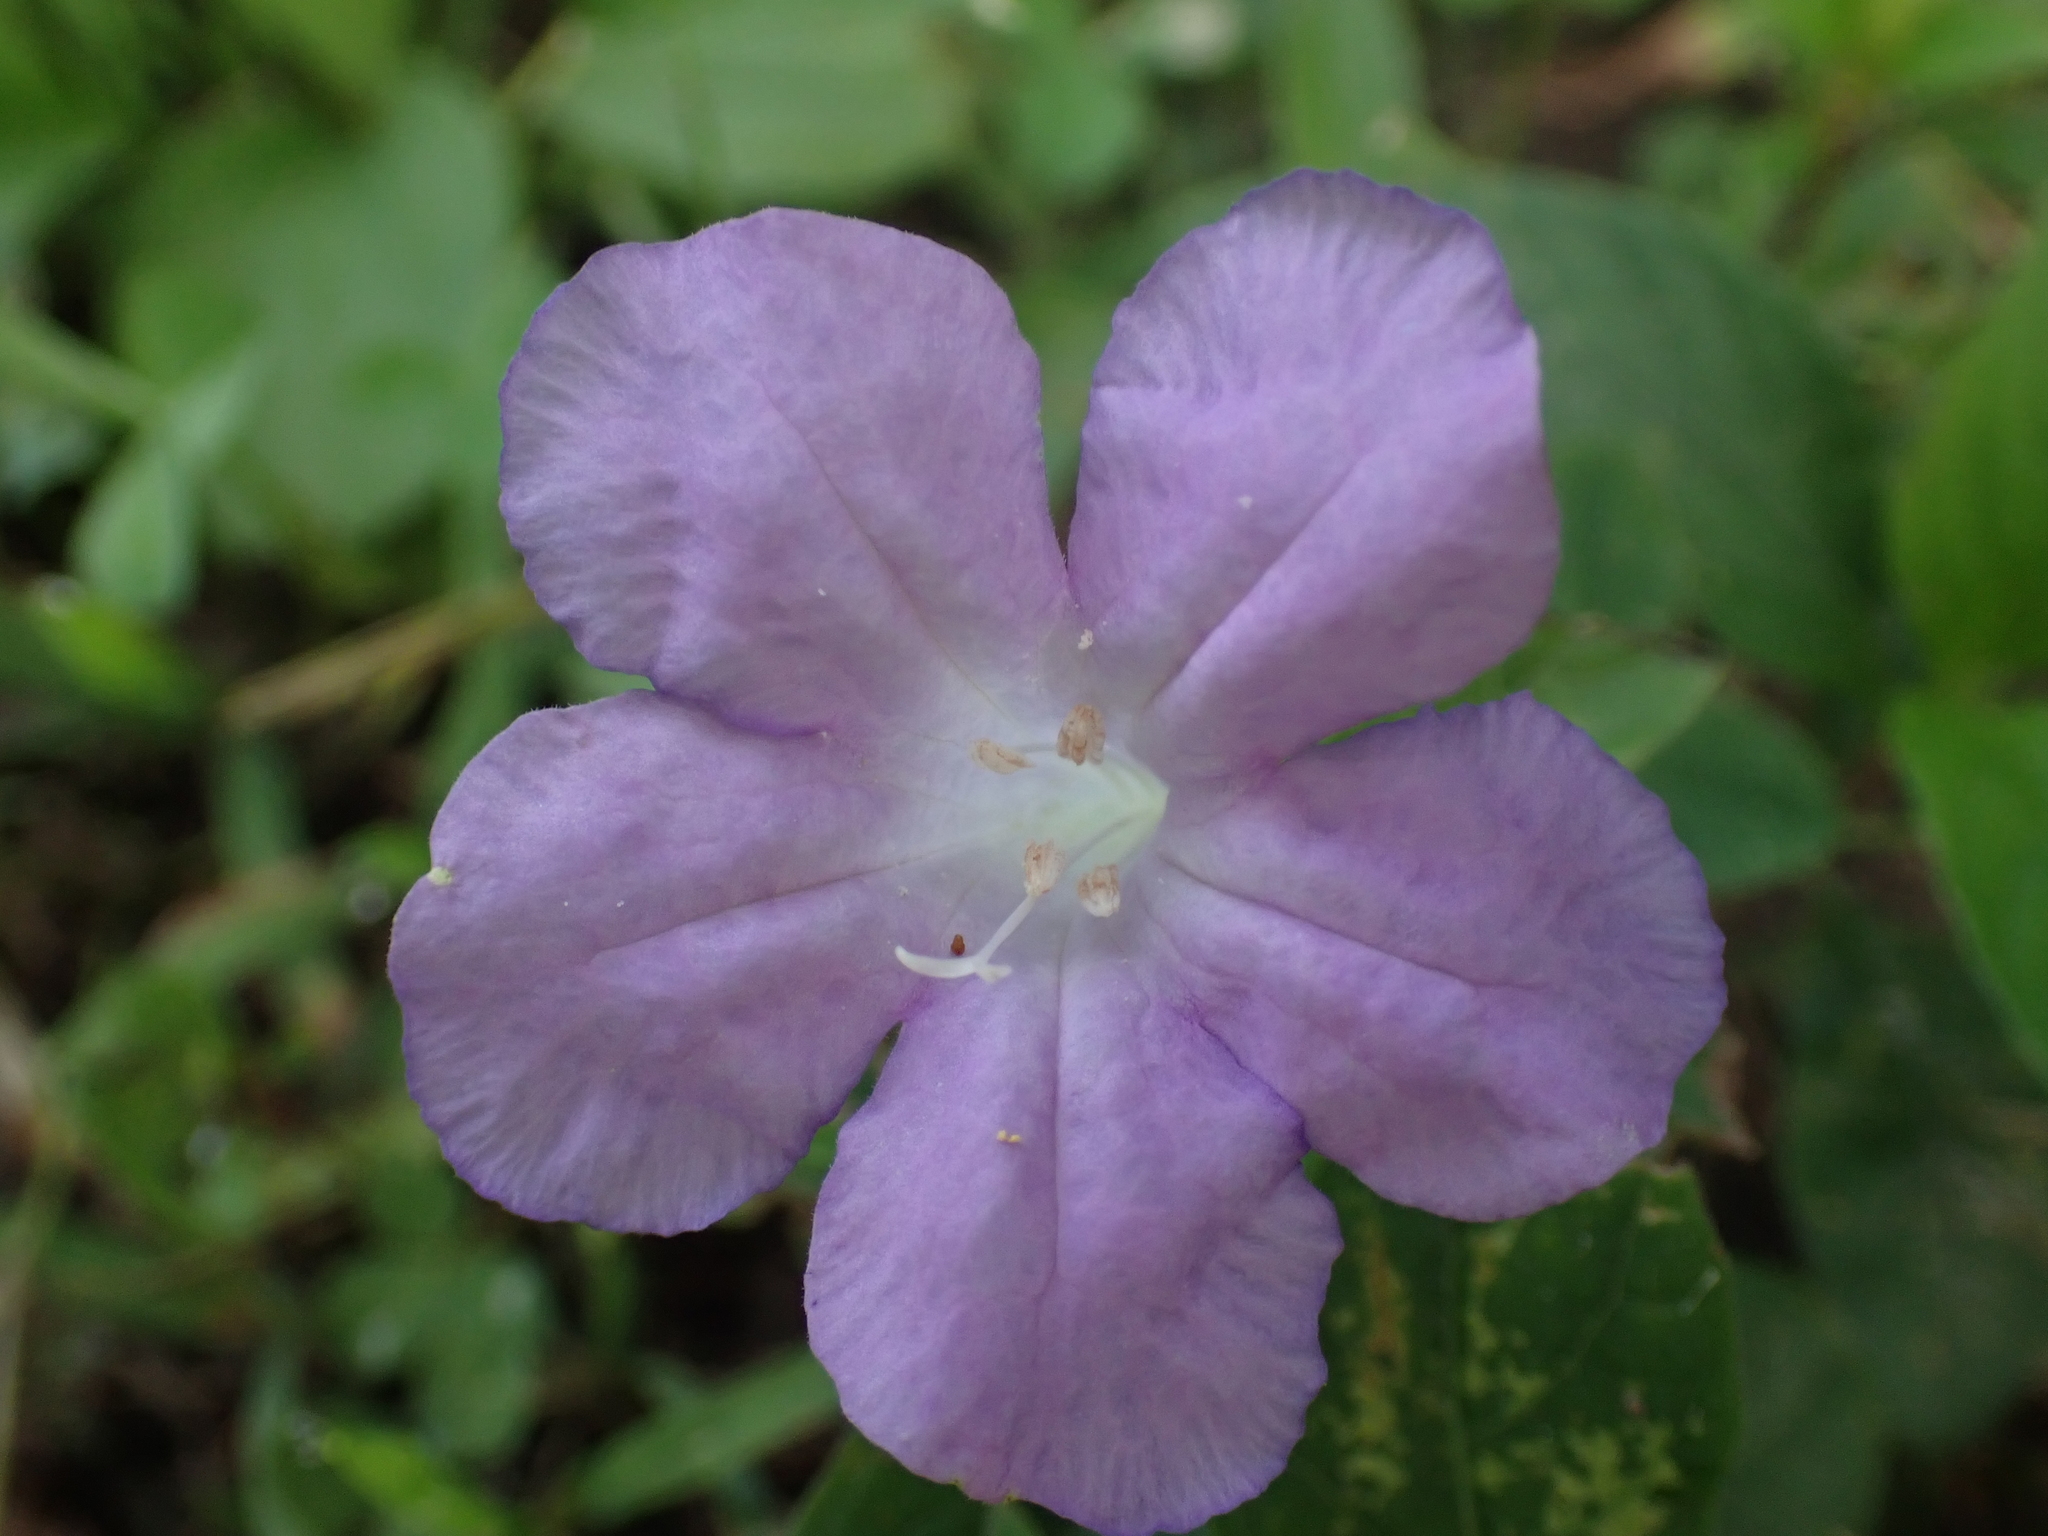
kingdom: Plantae
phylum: Tracheophyta
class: Magnoliopsida
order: Lamiales
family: Acanthaceae
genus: Ruellia
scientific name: Ruellia caroliniensis
